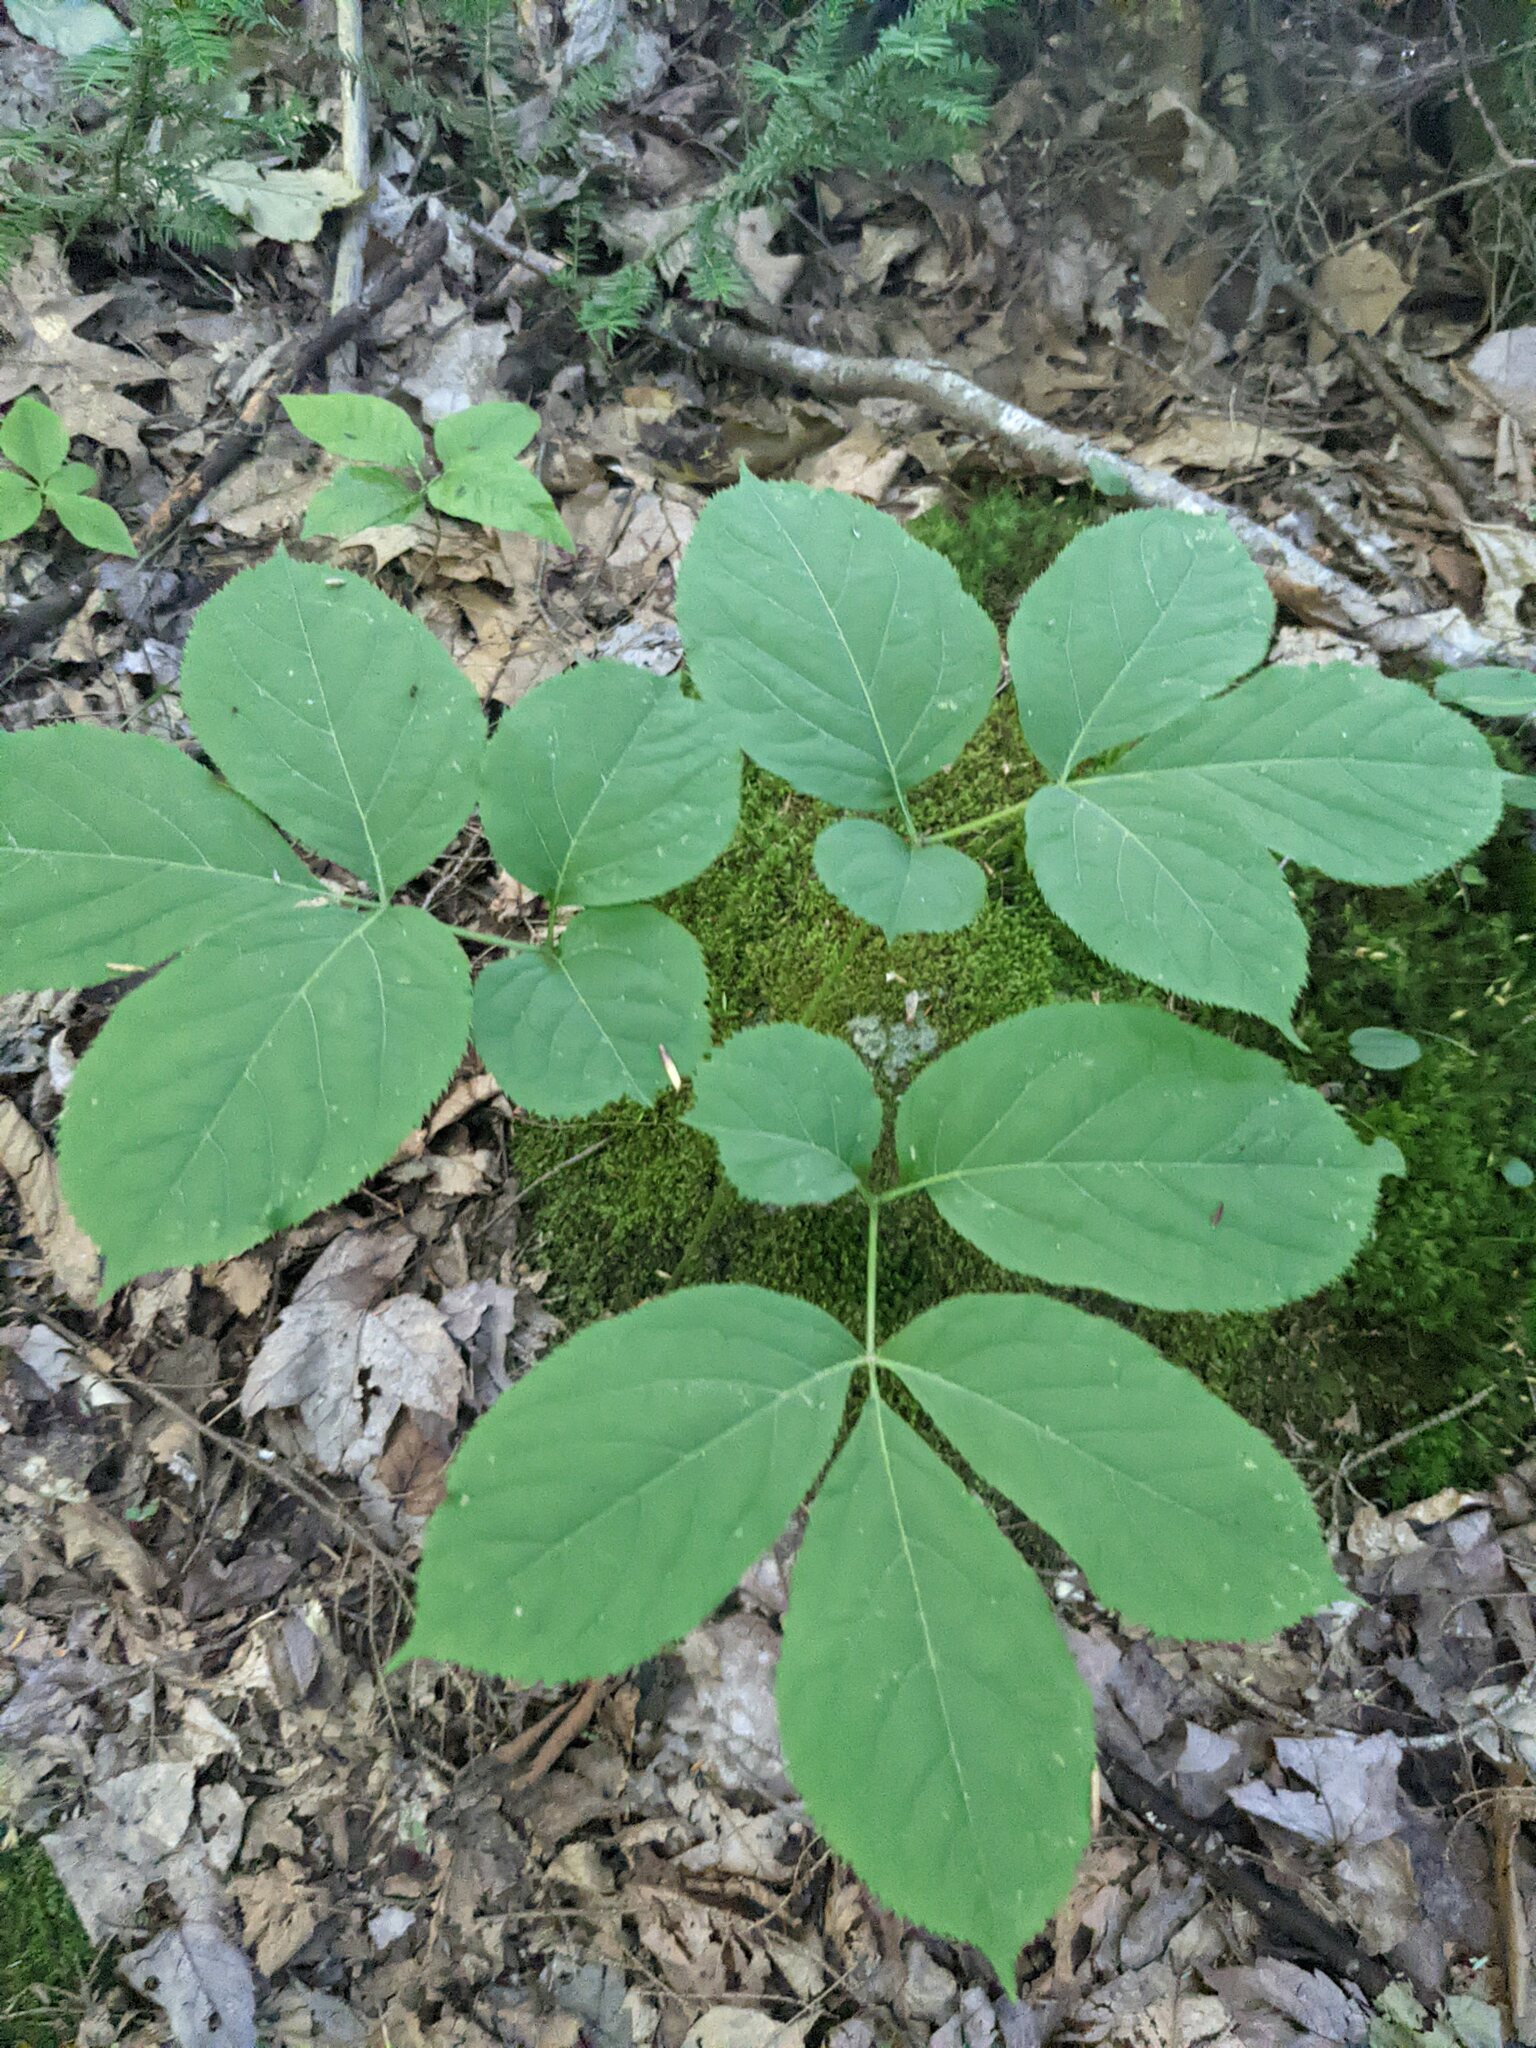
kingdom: Plantae
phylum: Tracheophyta
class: Magnoliopsida
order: Apiales
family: Araliaceae
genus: Aralia
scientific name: Aralia nudicaulis
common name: Wild sarsaparilla
